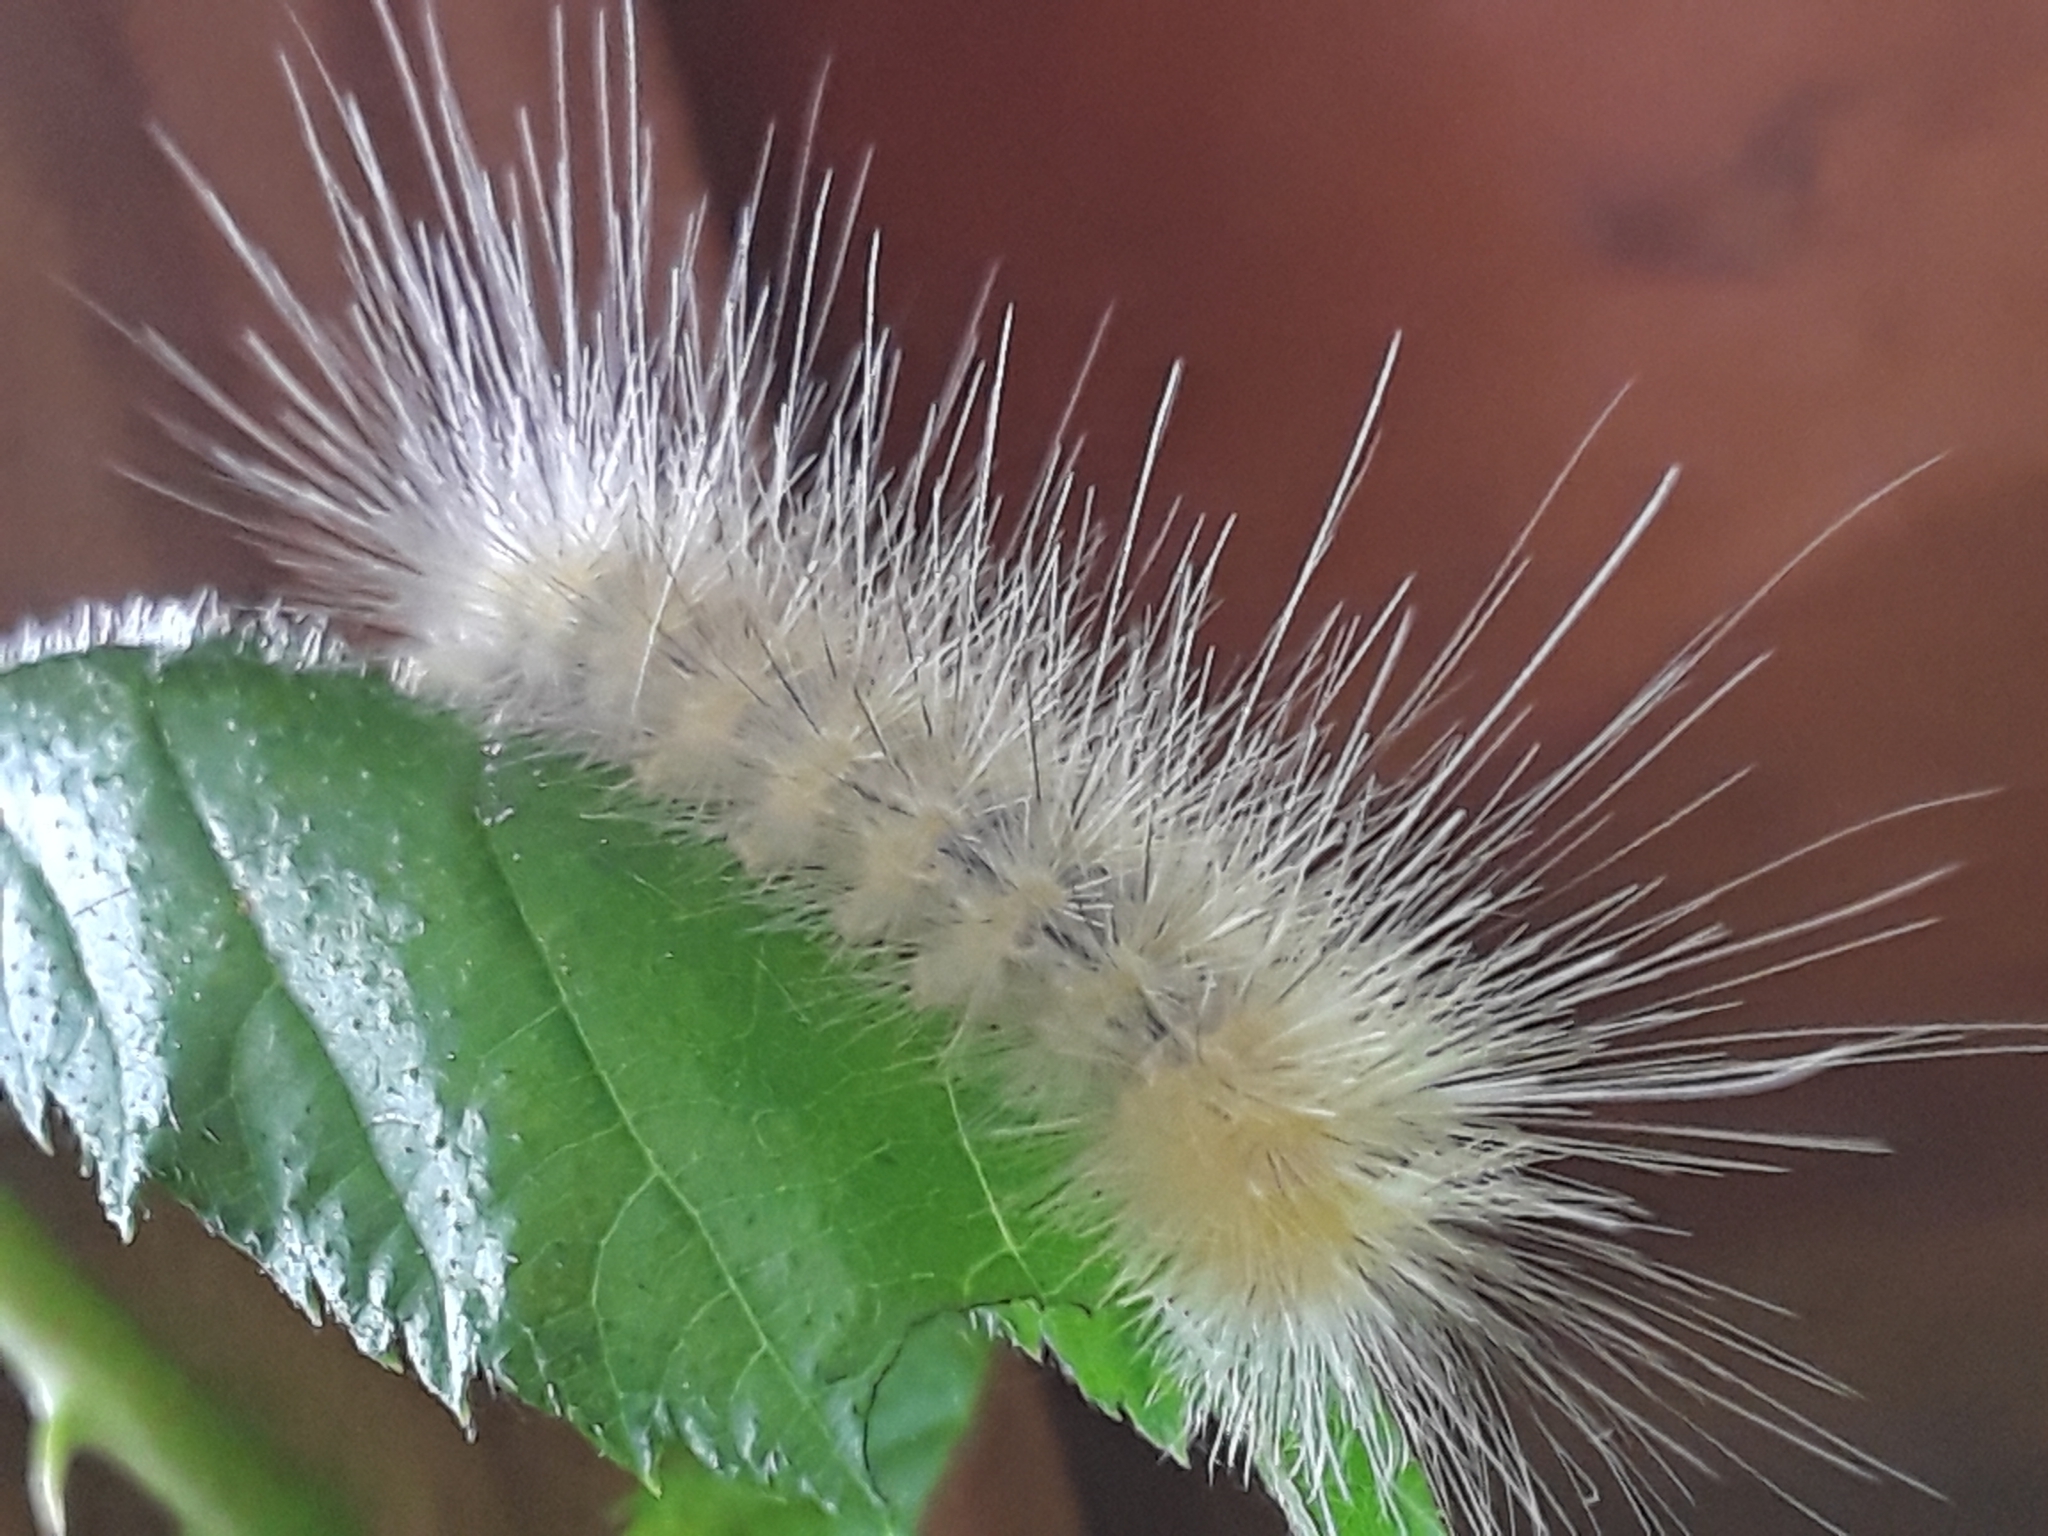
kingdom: Animalia
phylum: Arthropoda
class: Insecta
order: Lepidoptera
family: Erebidae
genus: Spilosoma
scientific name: Spilosoma virginica
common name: Virginia tiger moth
